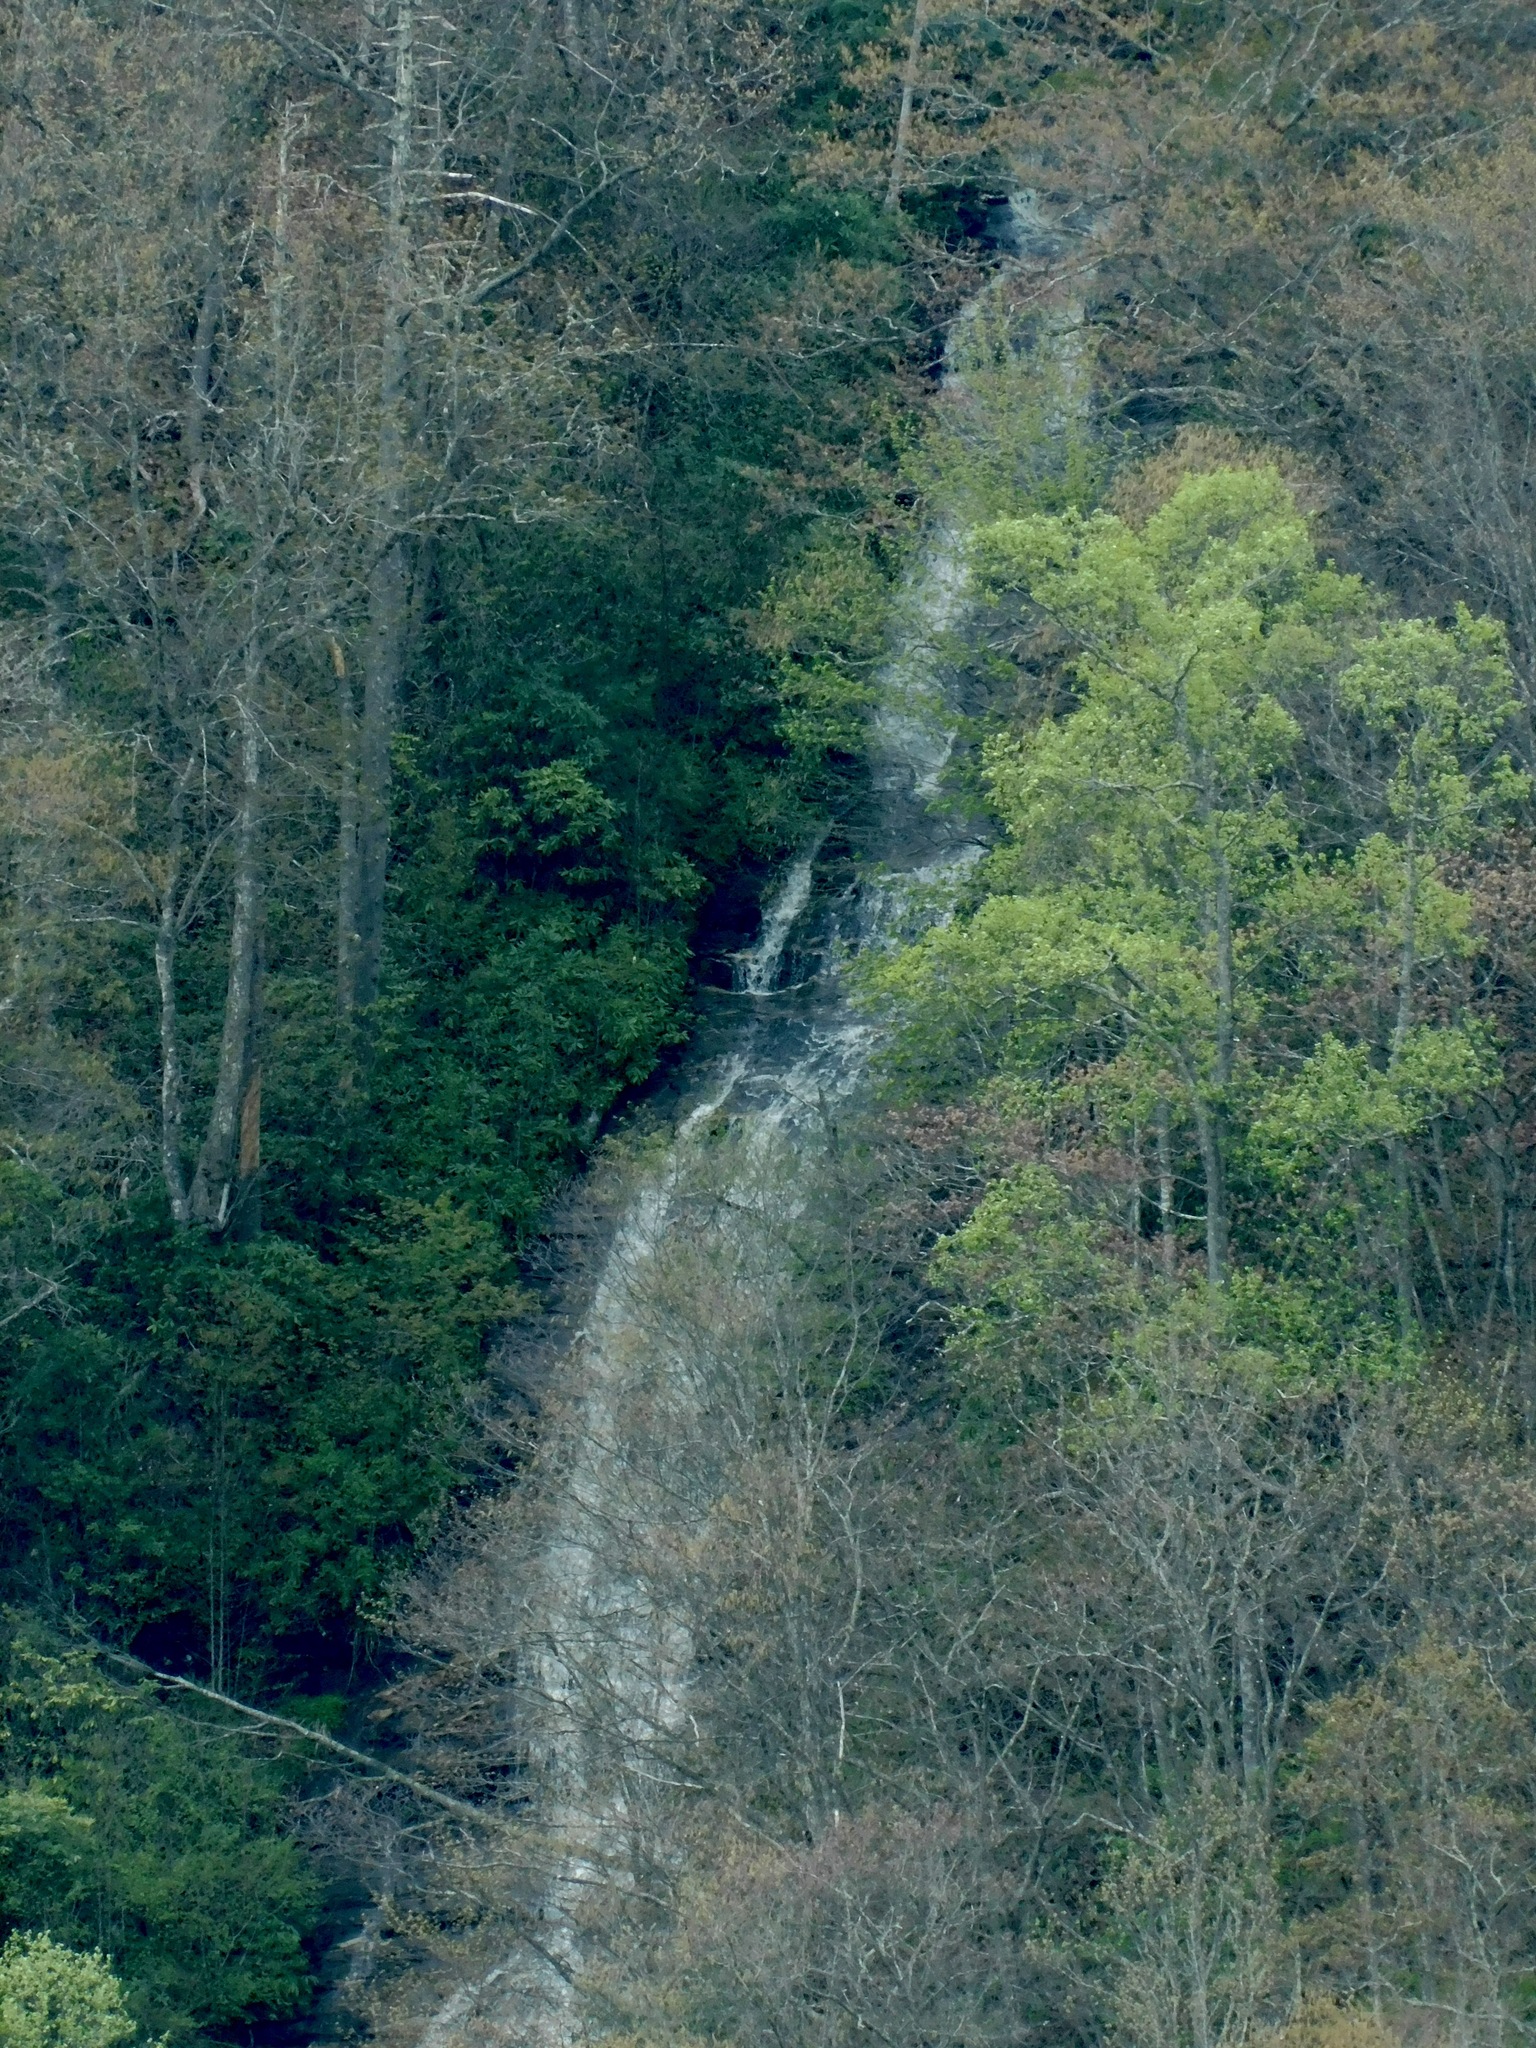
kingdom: Plantae
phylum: Bryophyta
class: Bryopsida
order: Hypnales
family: Brachytheciaceae
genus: Brachythecium
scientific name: Brachythecium rivulare
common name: River ragged moss
